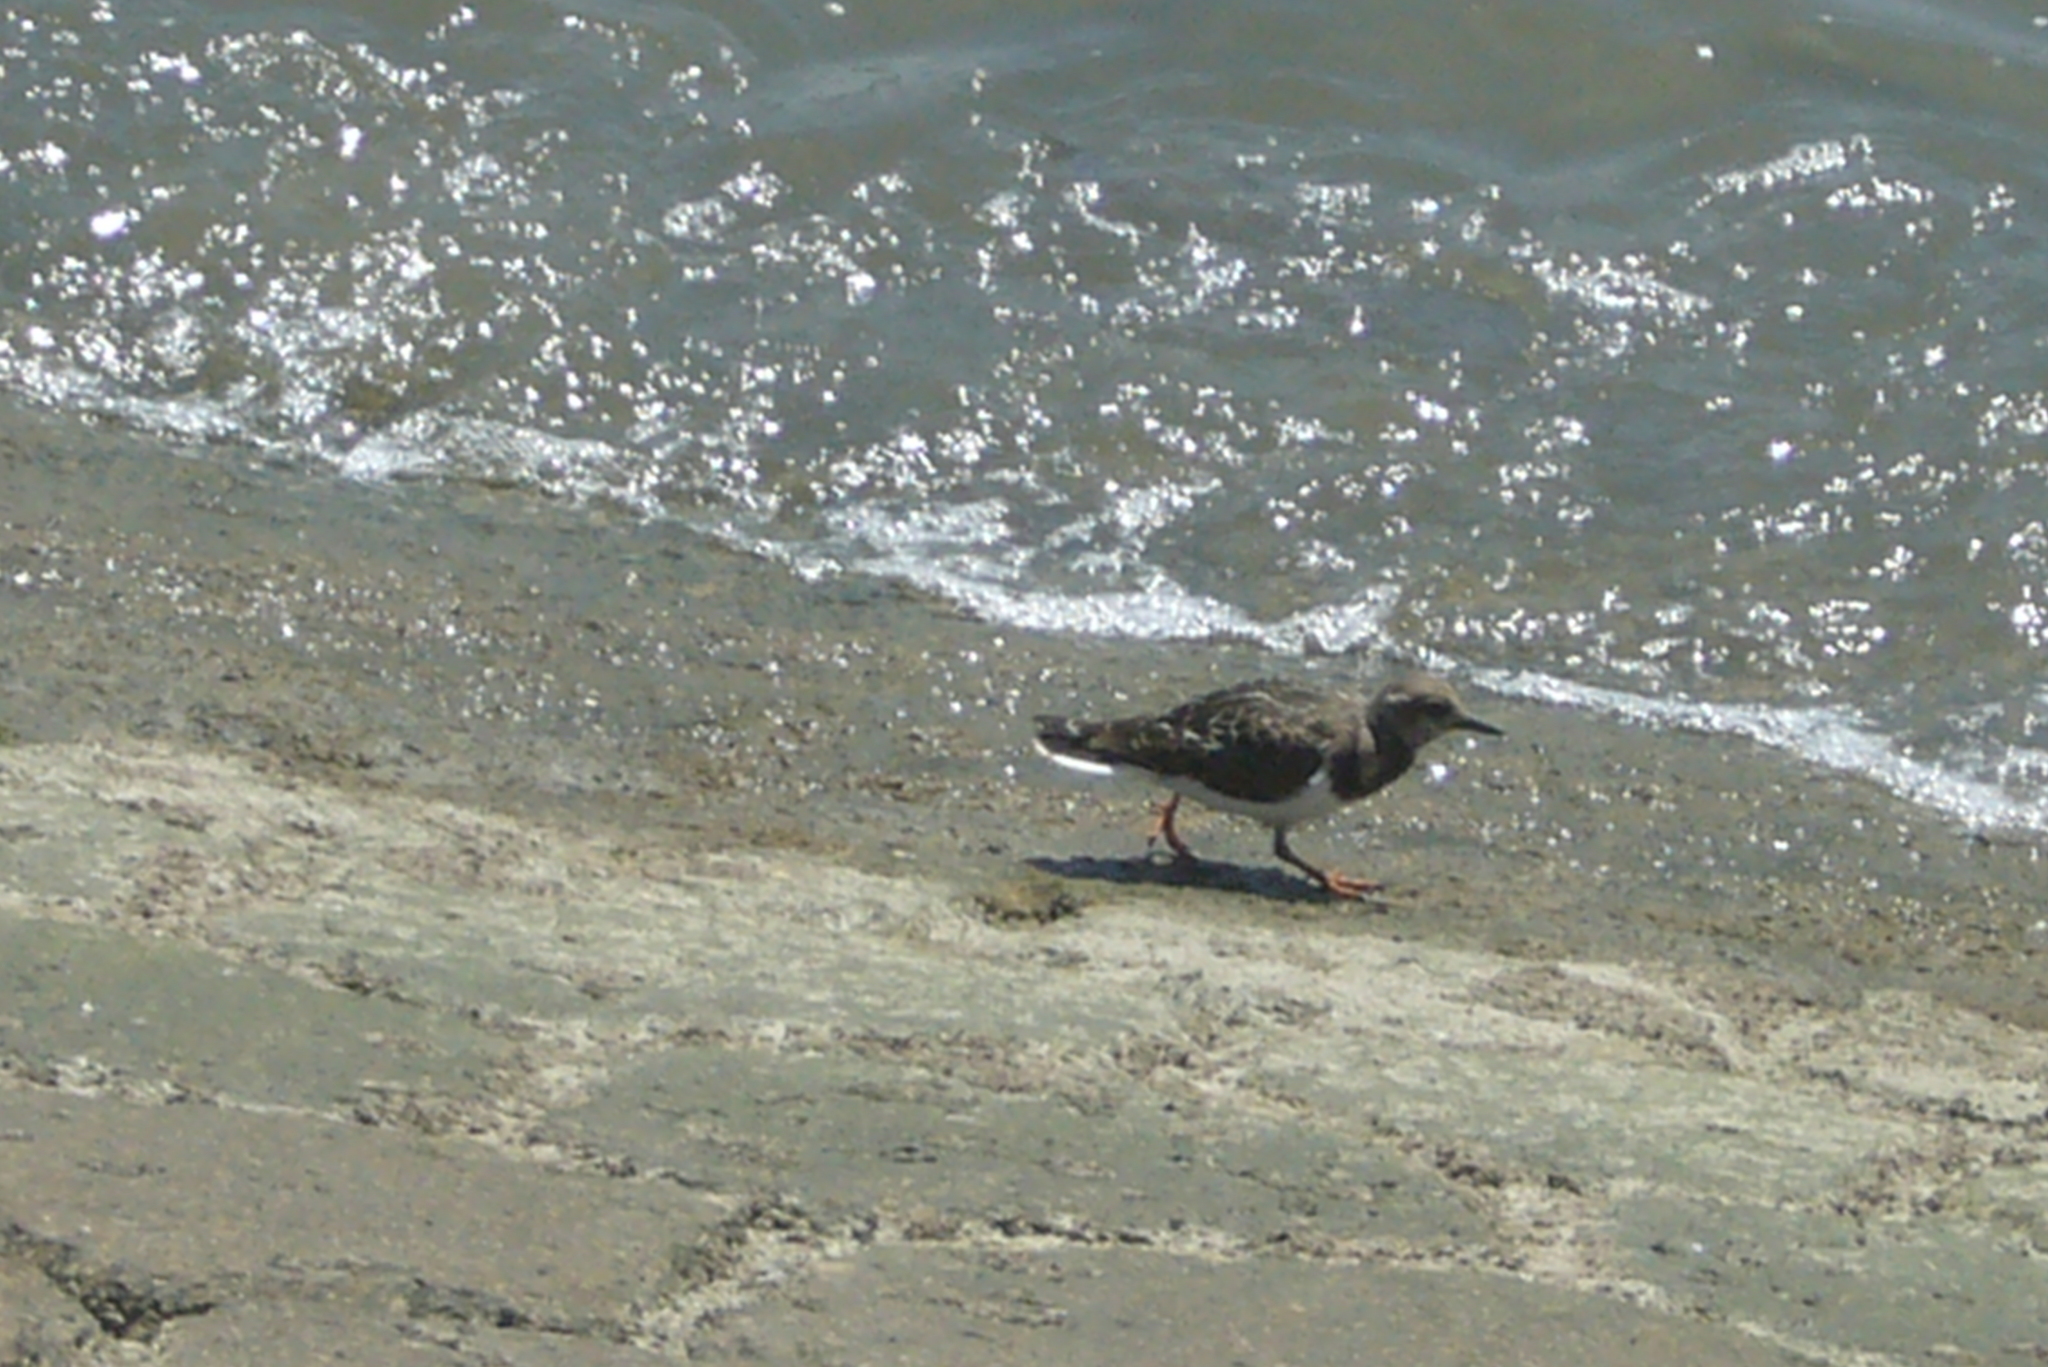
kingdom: Animalia
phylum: Chordata
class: Aves
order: Charadriiformes
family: Scolopacidae
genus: Arenaria
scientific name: Arenaria interpres
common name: Ruddy turnstone
